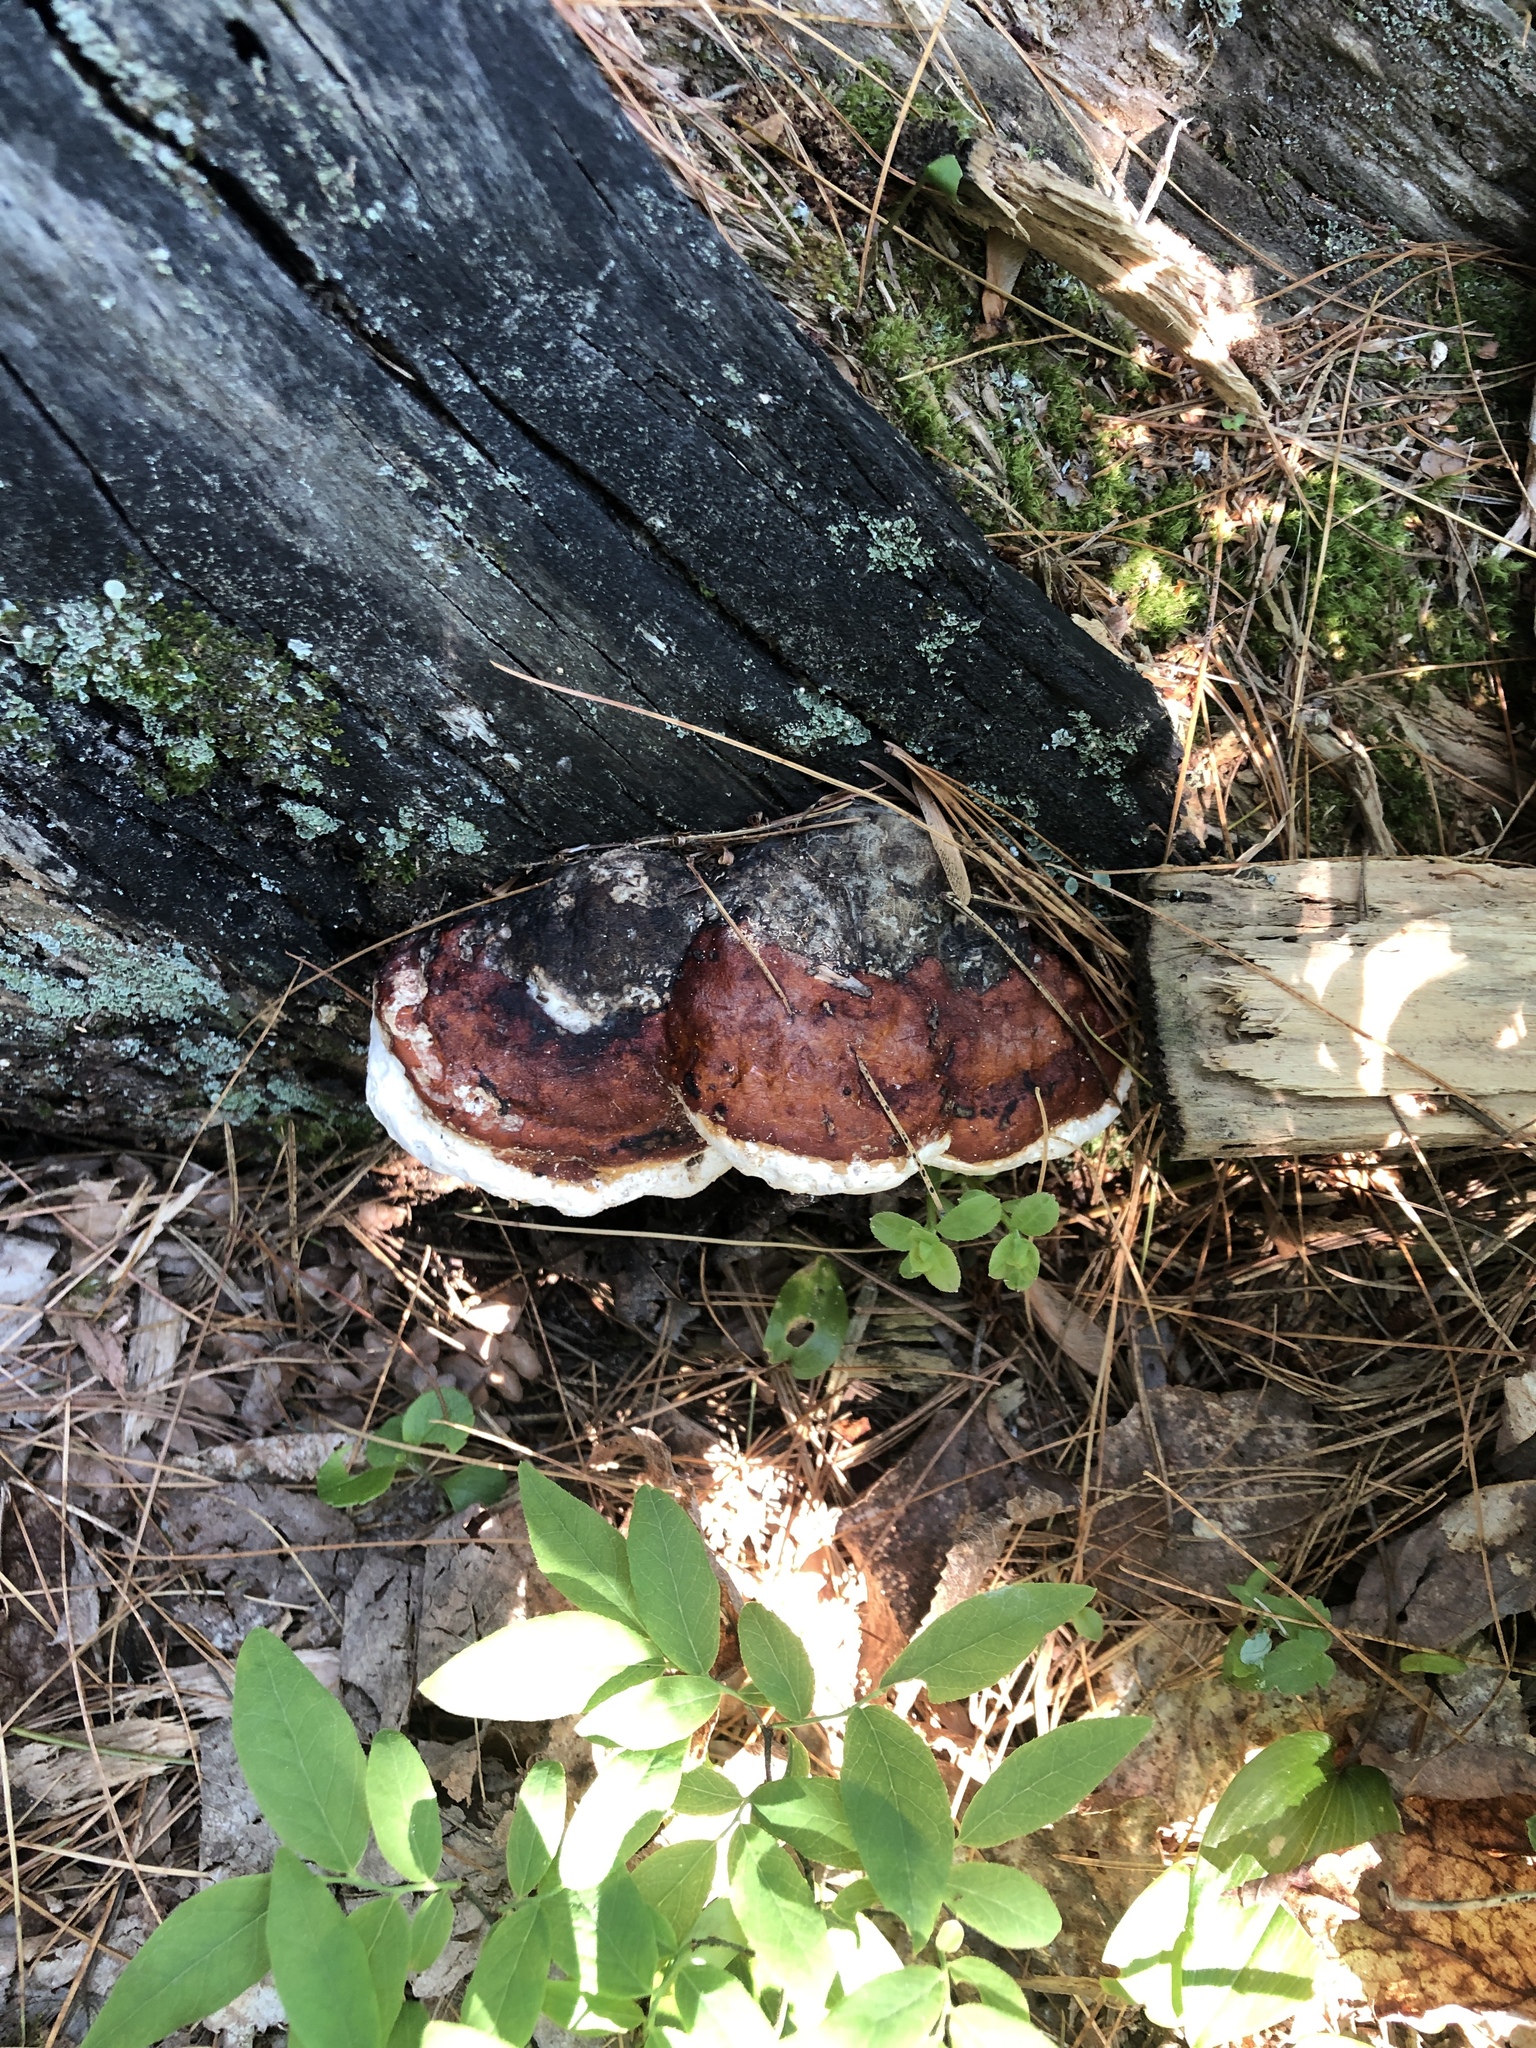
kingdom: Fungi
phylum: Basidiomycota
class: Agaricomycetes
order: Polyporales
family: Fomitopsidaceae
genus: Fomitopsis
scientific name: Fomitopsis mounceae
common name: Northern red belt
